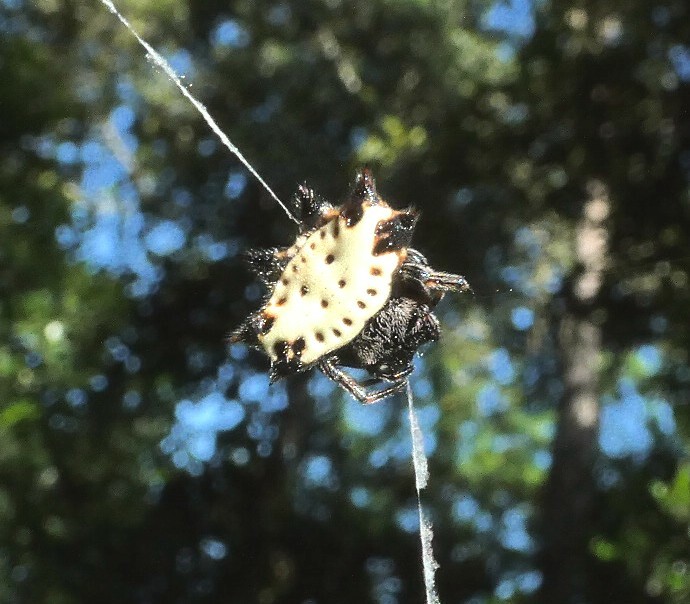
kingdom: Animalia
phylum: Arthropoda
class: Arachnida
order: Araneae
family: Araneidae
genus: Gasteracantha
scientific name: Gasteracantha cancriformis
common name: Orb weavers
